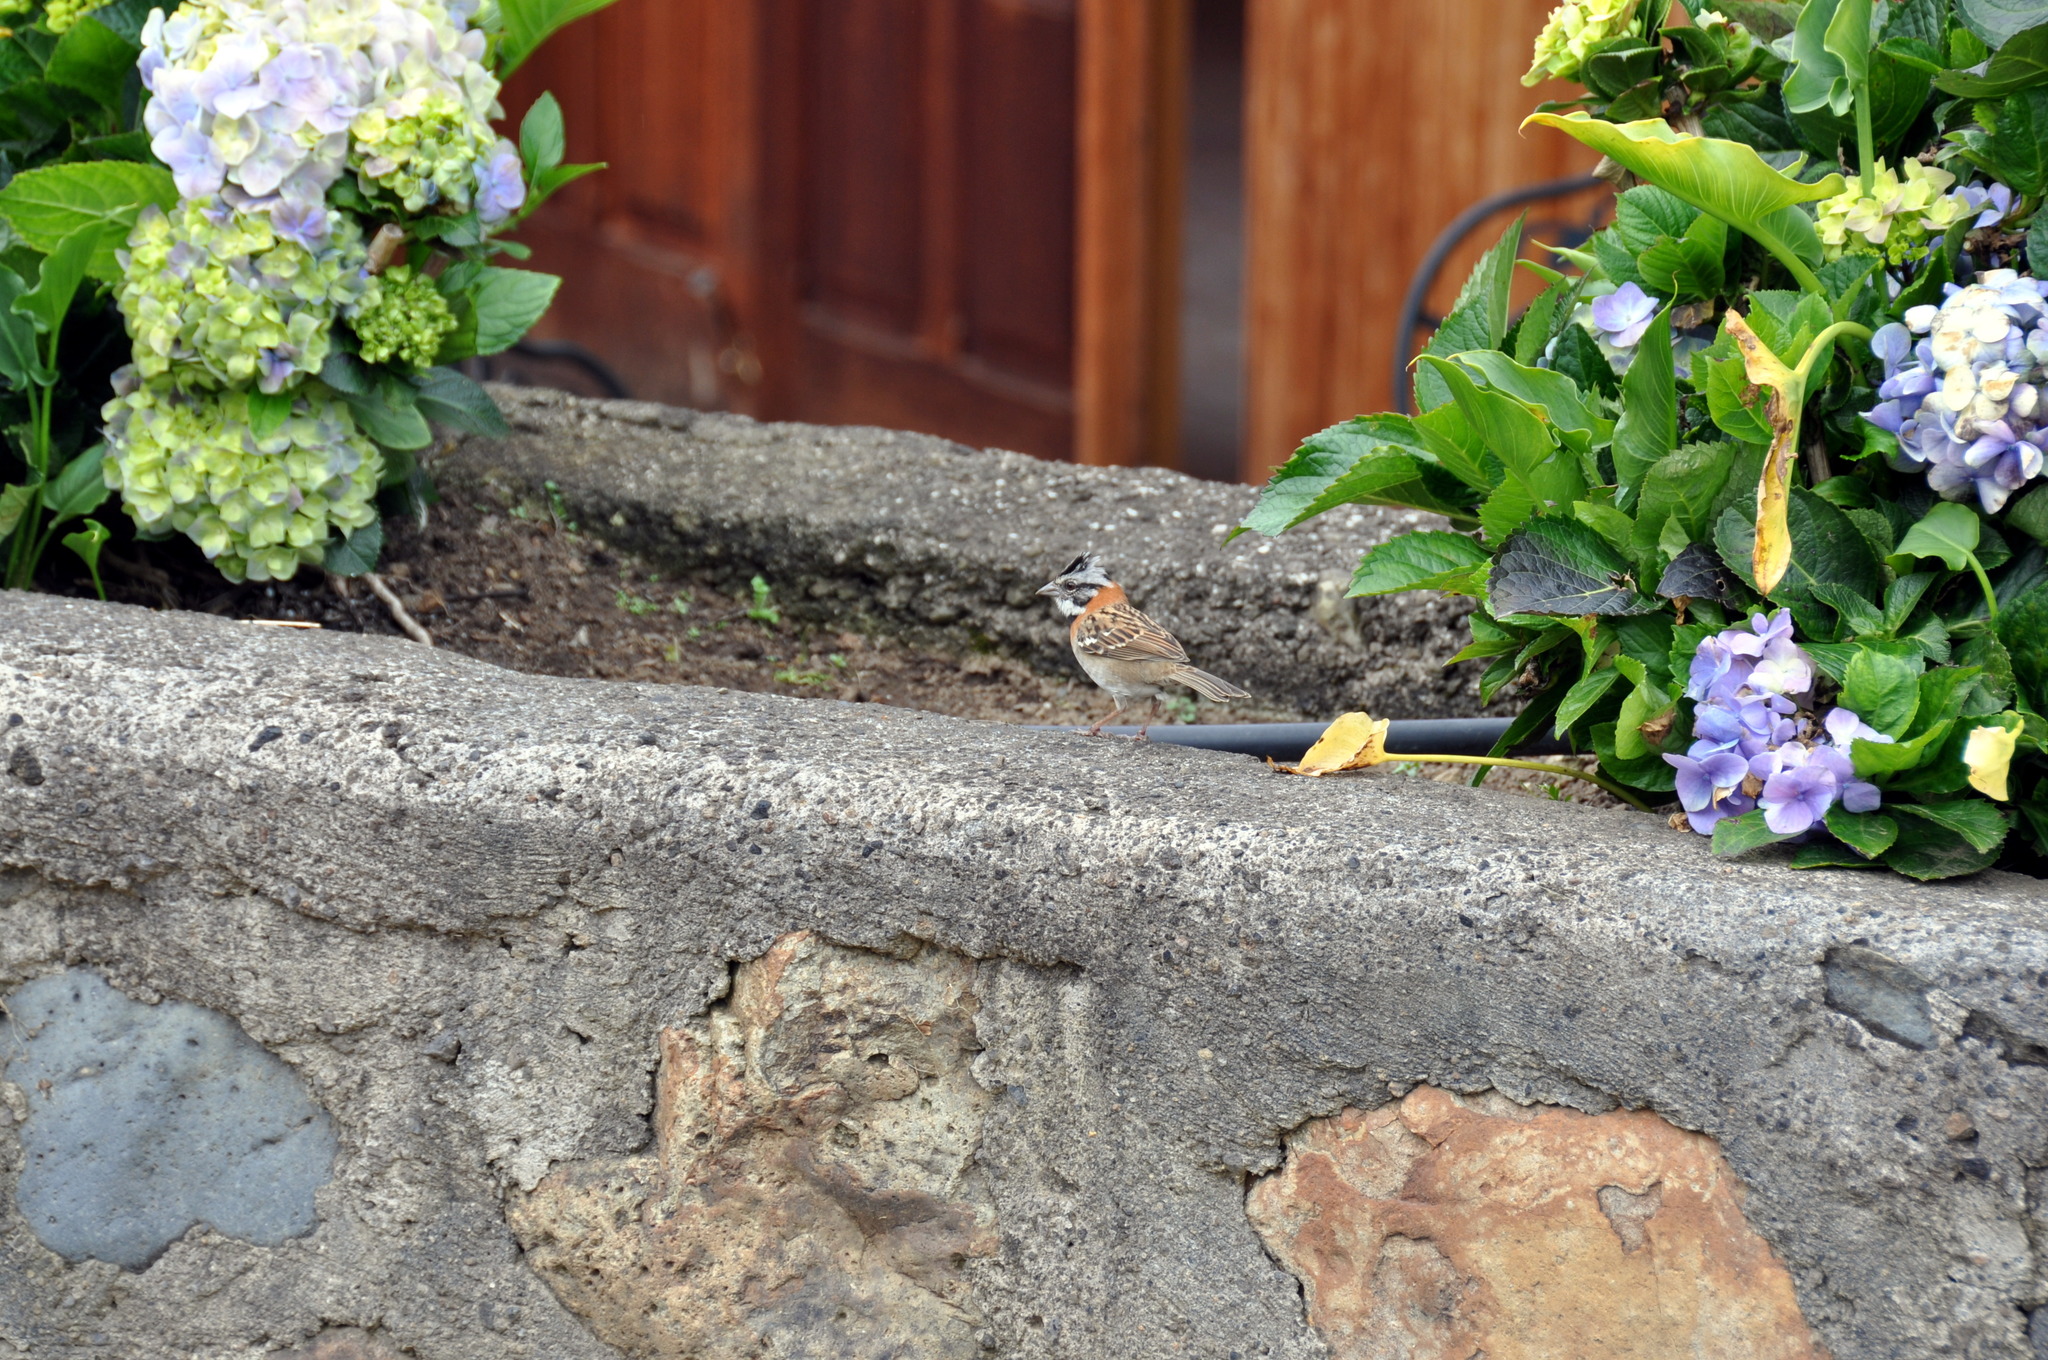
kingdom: Animalia
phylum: Chordata
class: Aves
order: Passeriformes
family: Passerellidae
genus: Zonotrichia
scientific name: Zonotrichia capensis
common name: Rufous-collared sparrow
